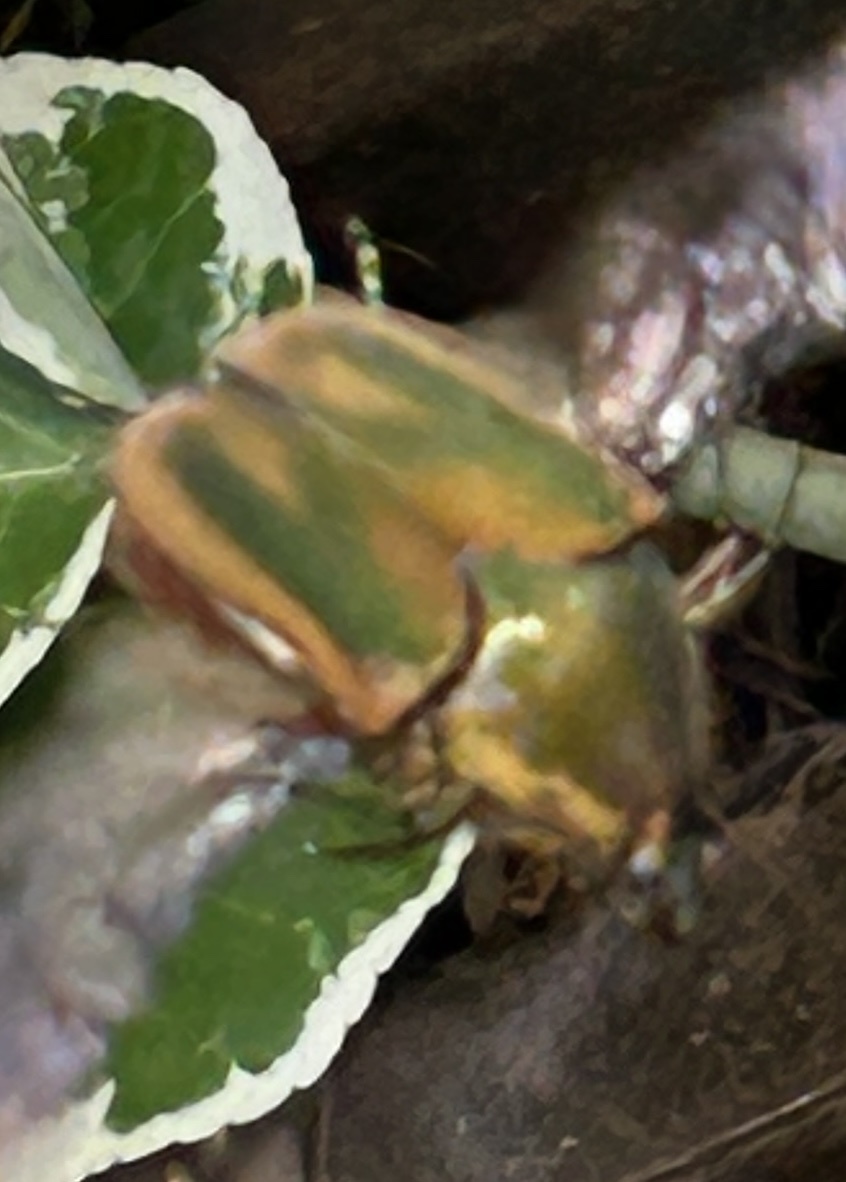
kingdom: Animalia
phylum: Arthropoda
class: Insecta
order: Coleoptera
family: Scarabaeidae
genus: Cotinis
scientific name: Cotinis nitida
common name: Common green june beetle
